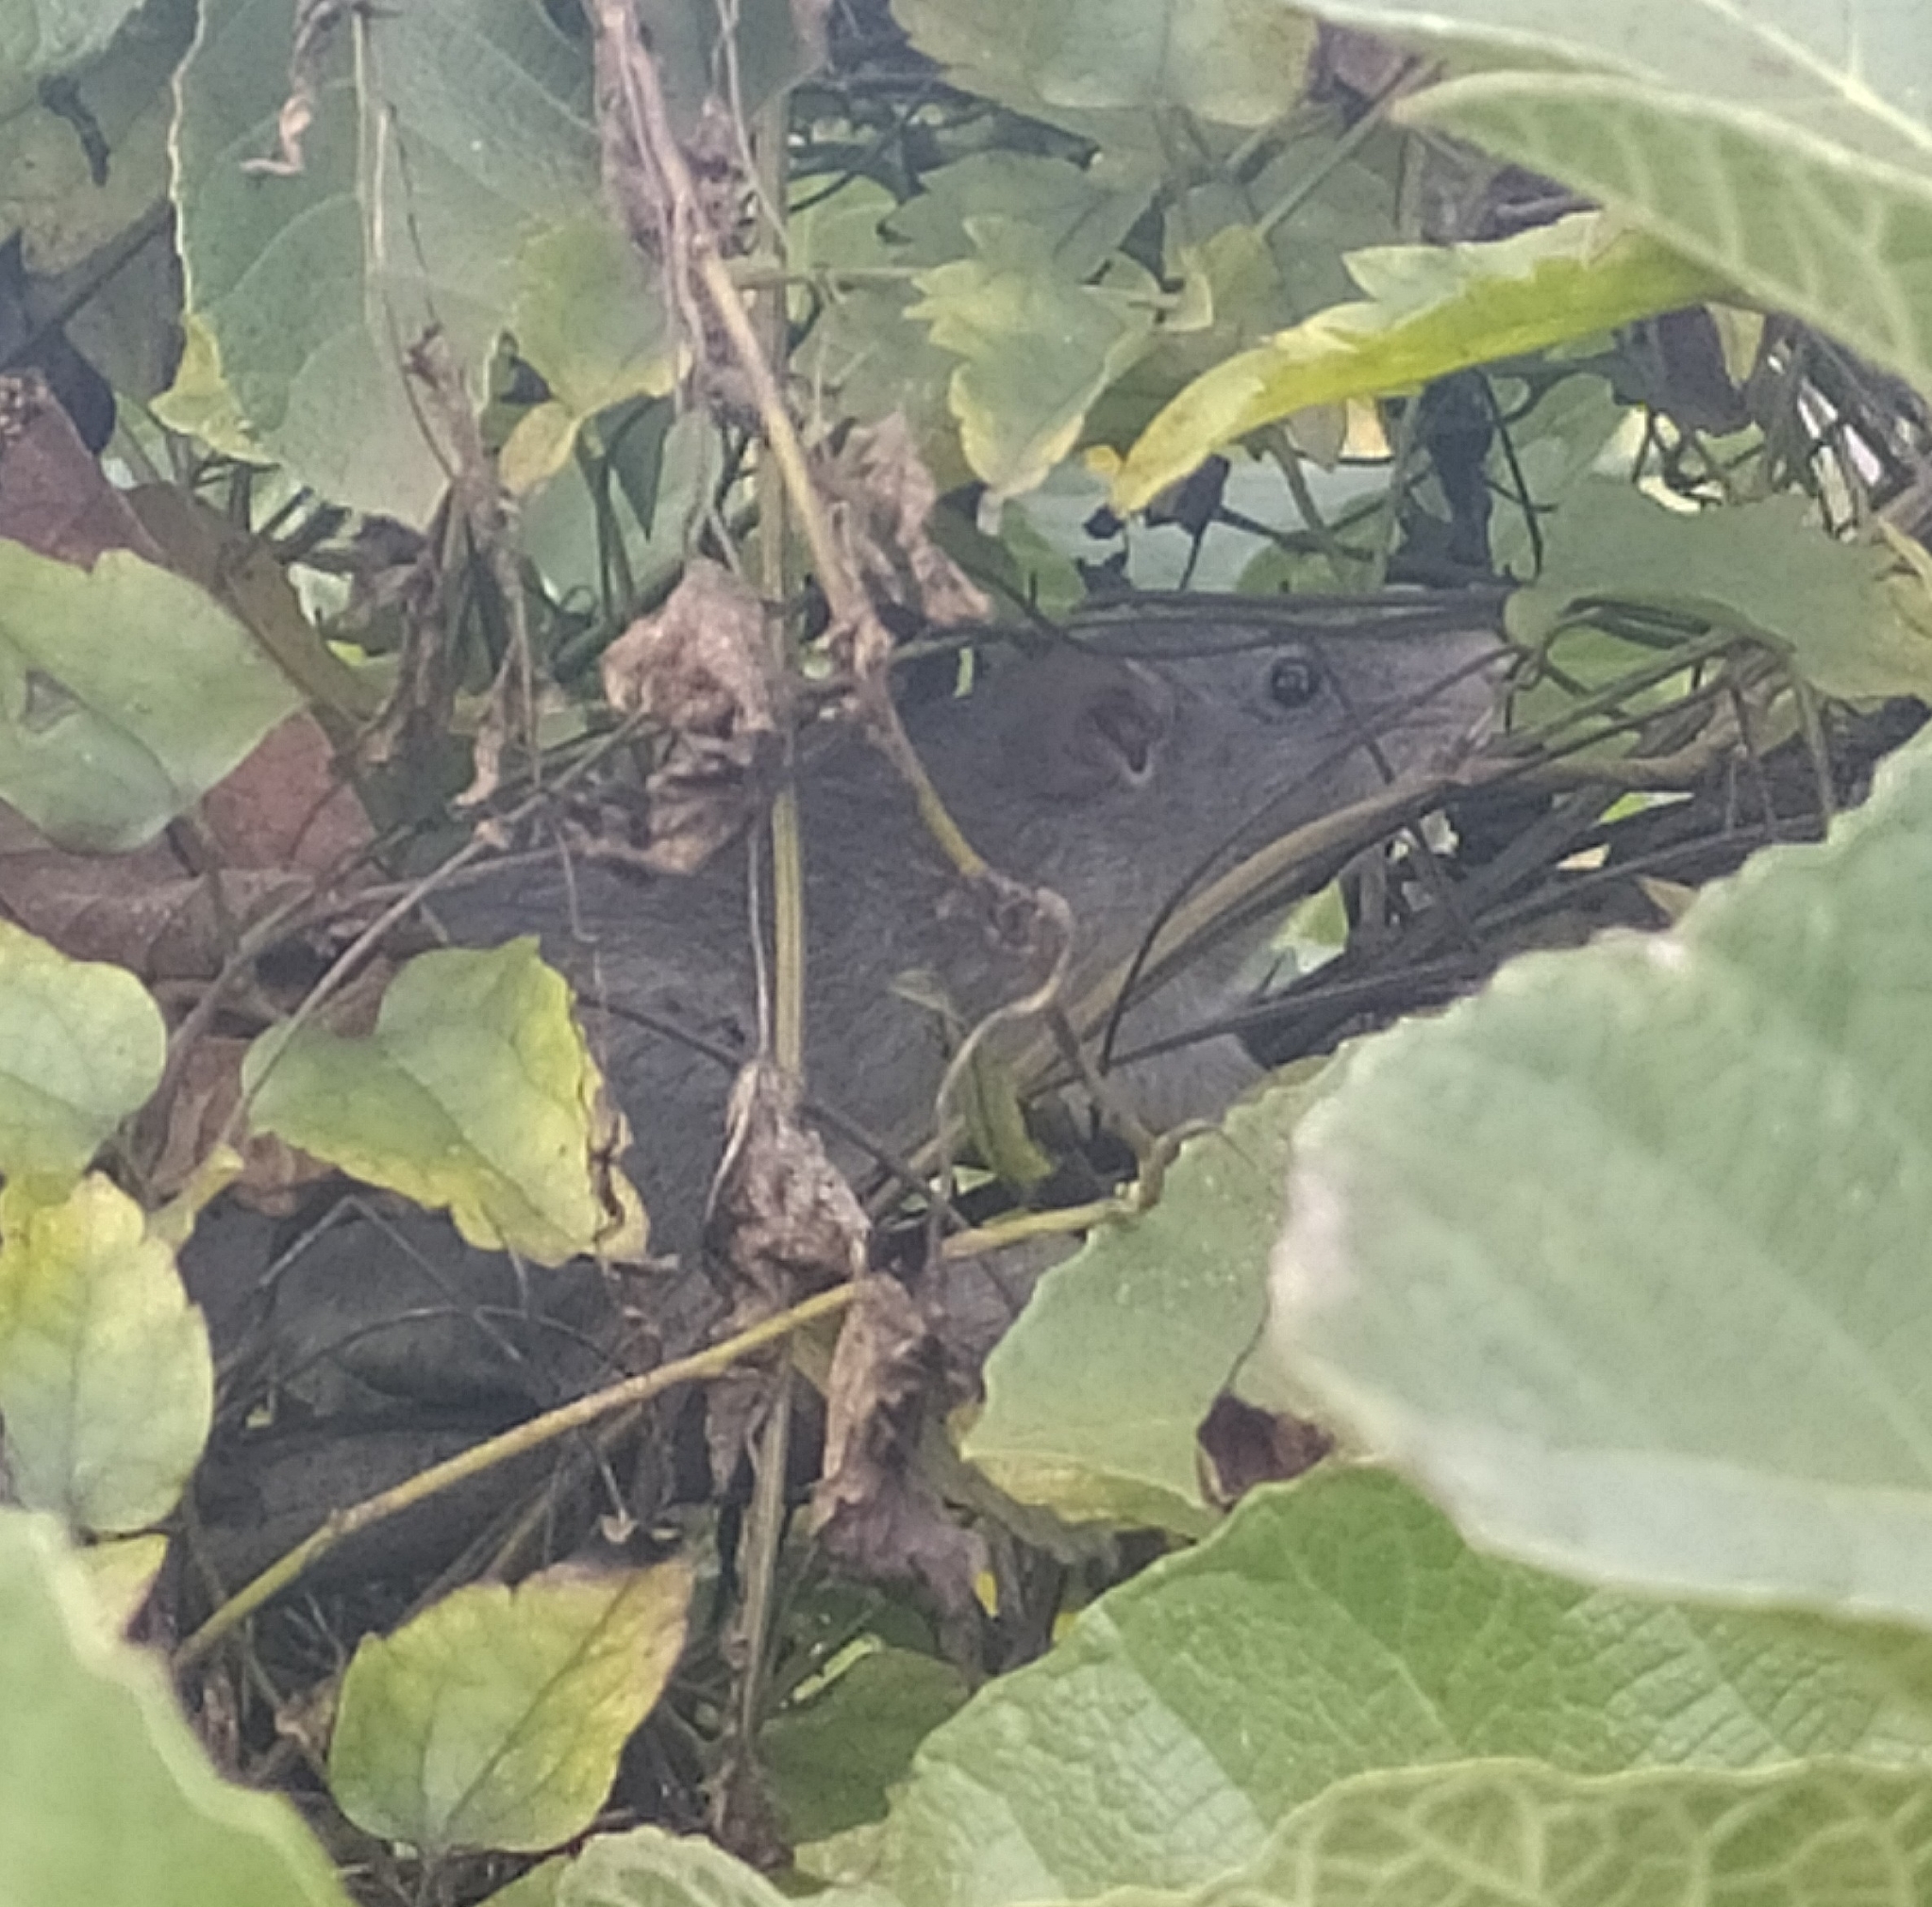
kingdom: Animalia
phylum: Chordata
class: Mammalia
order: Rodentia
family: Muridae
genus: Rattus
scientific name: Rattus norvegicus
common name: Brown rat
